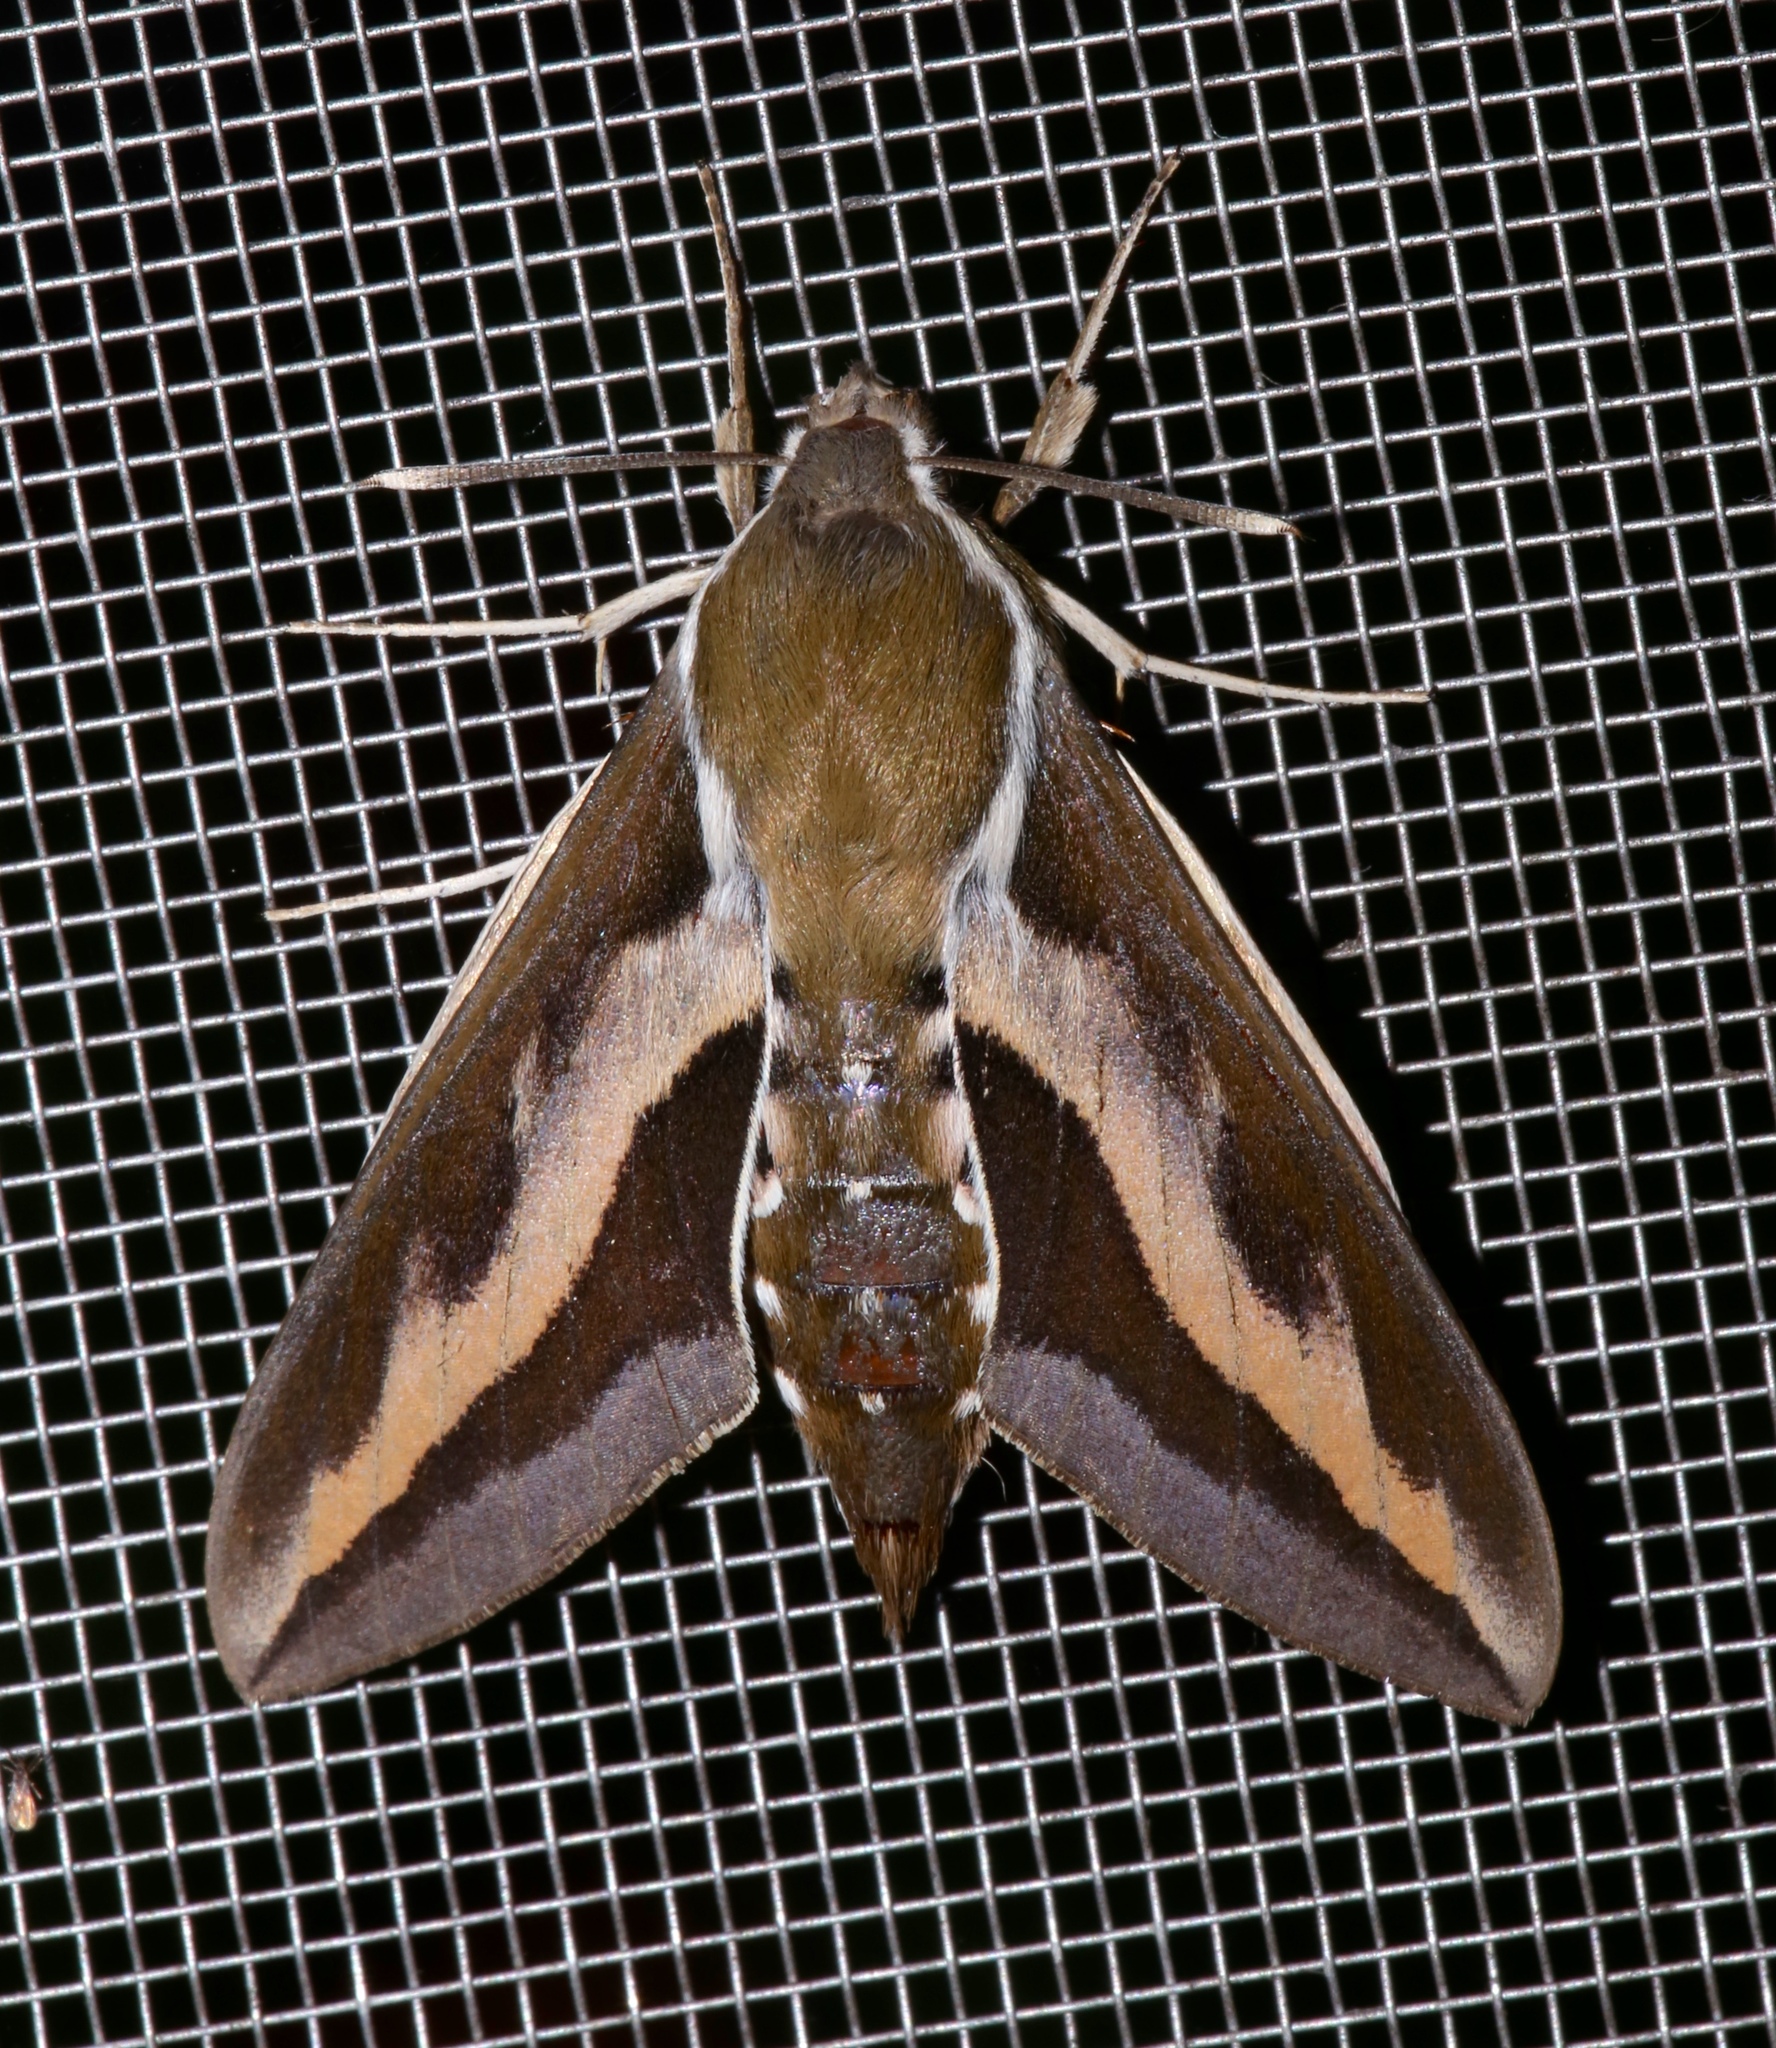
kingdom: Animalia
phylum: Arthropoda
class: Insecta
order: Lepidoptera
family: Sphingidae
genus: Hyles
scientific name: Hyles gallii
